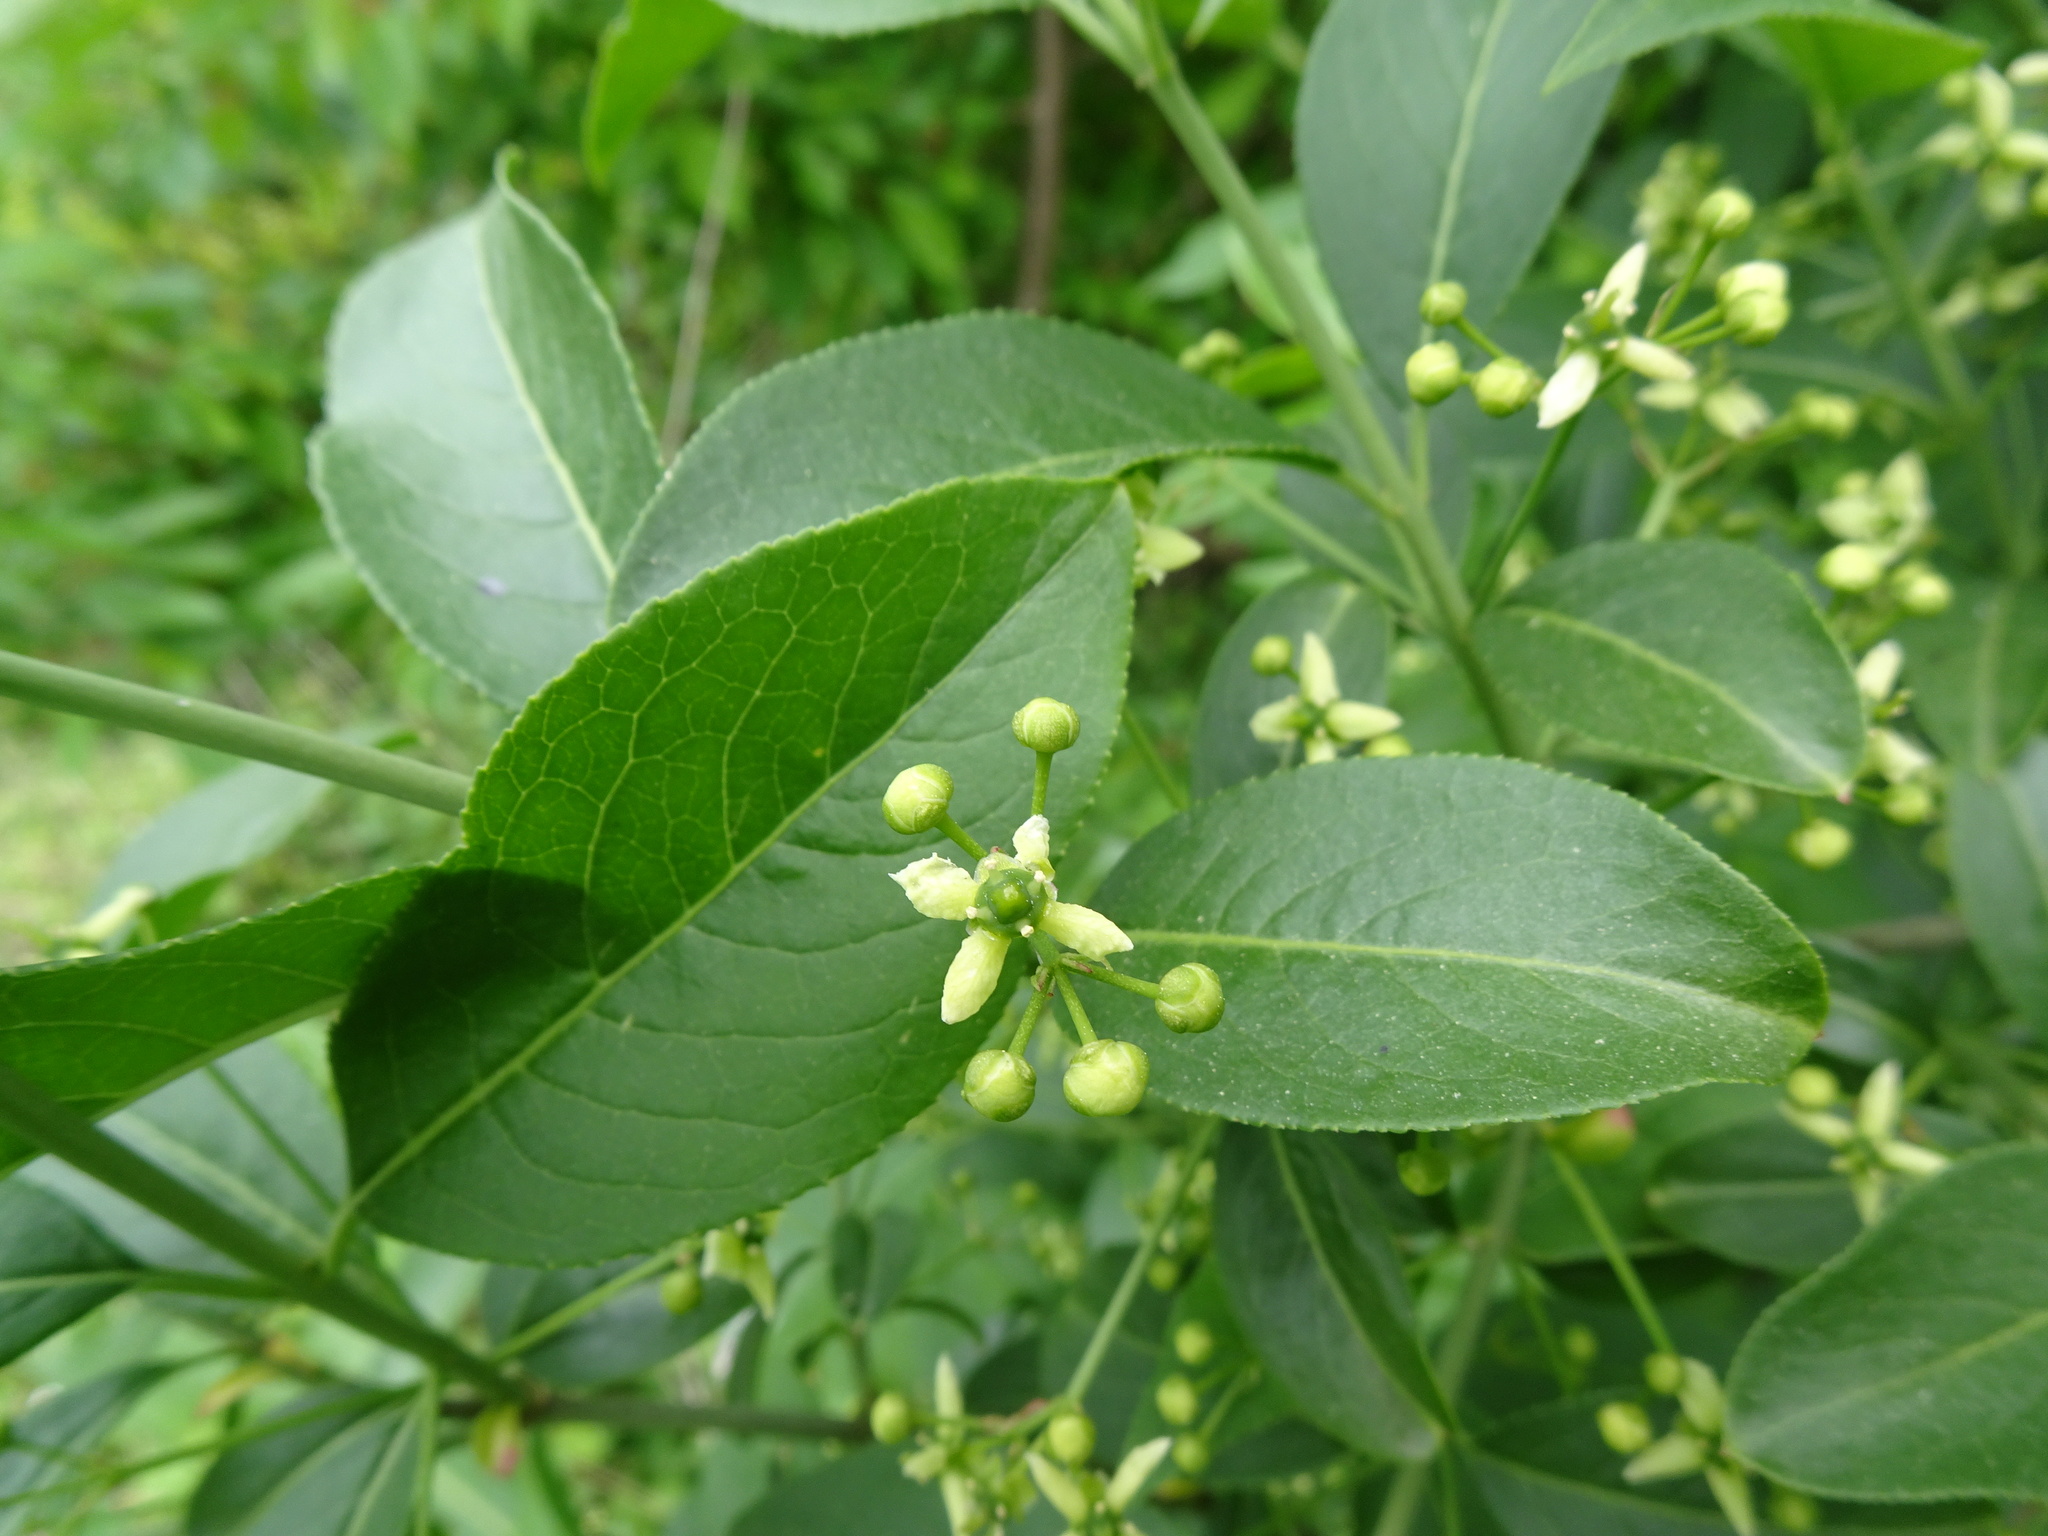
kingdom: Plantae
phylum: Tracheophyta
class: Magnoliopsida
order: Celastrales
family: Celastraceae
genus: Euonymus
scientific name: Euonymus europaeus
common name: Spindle
